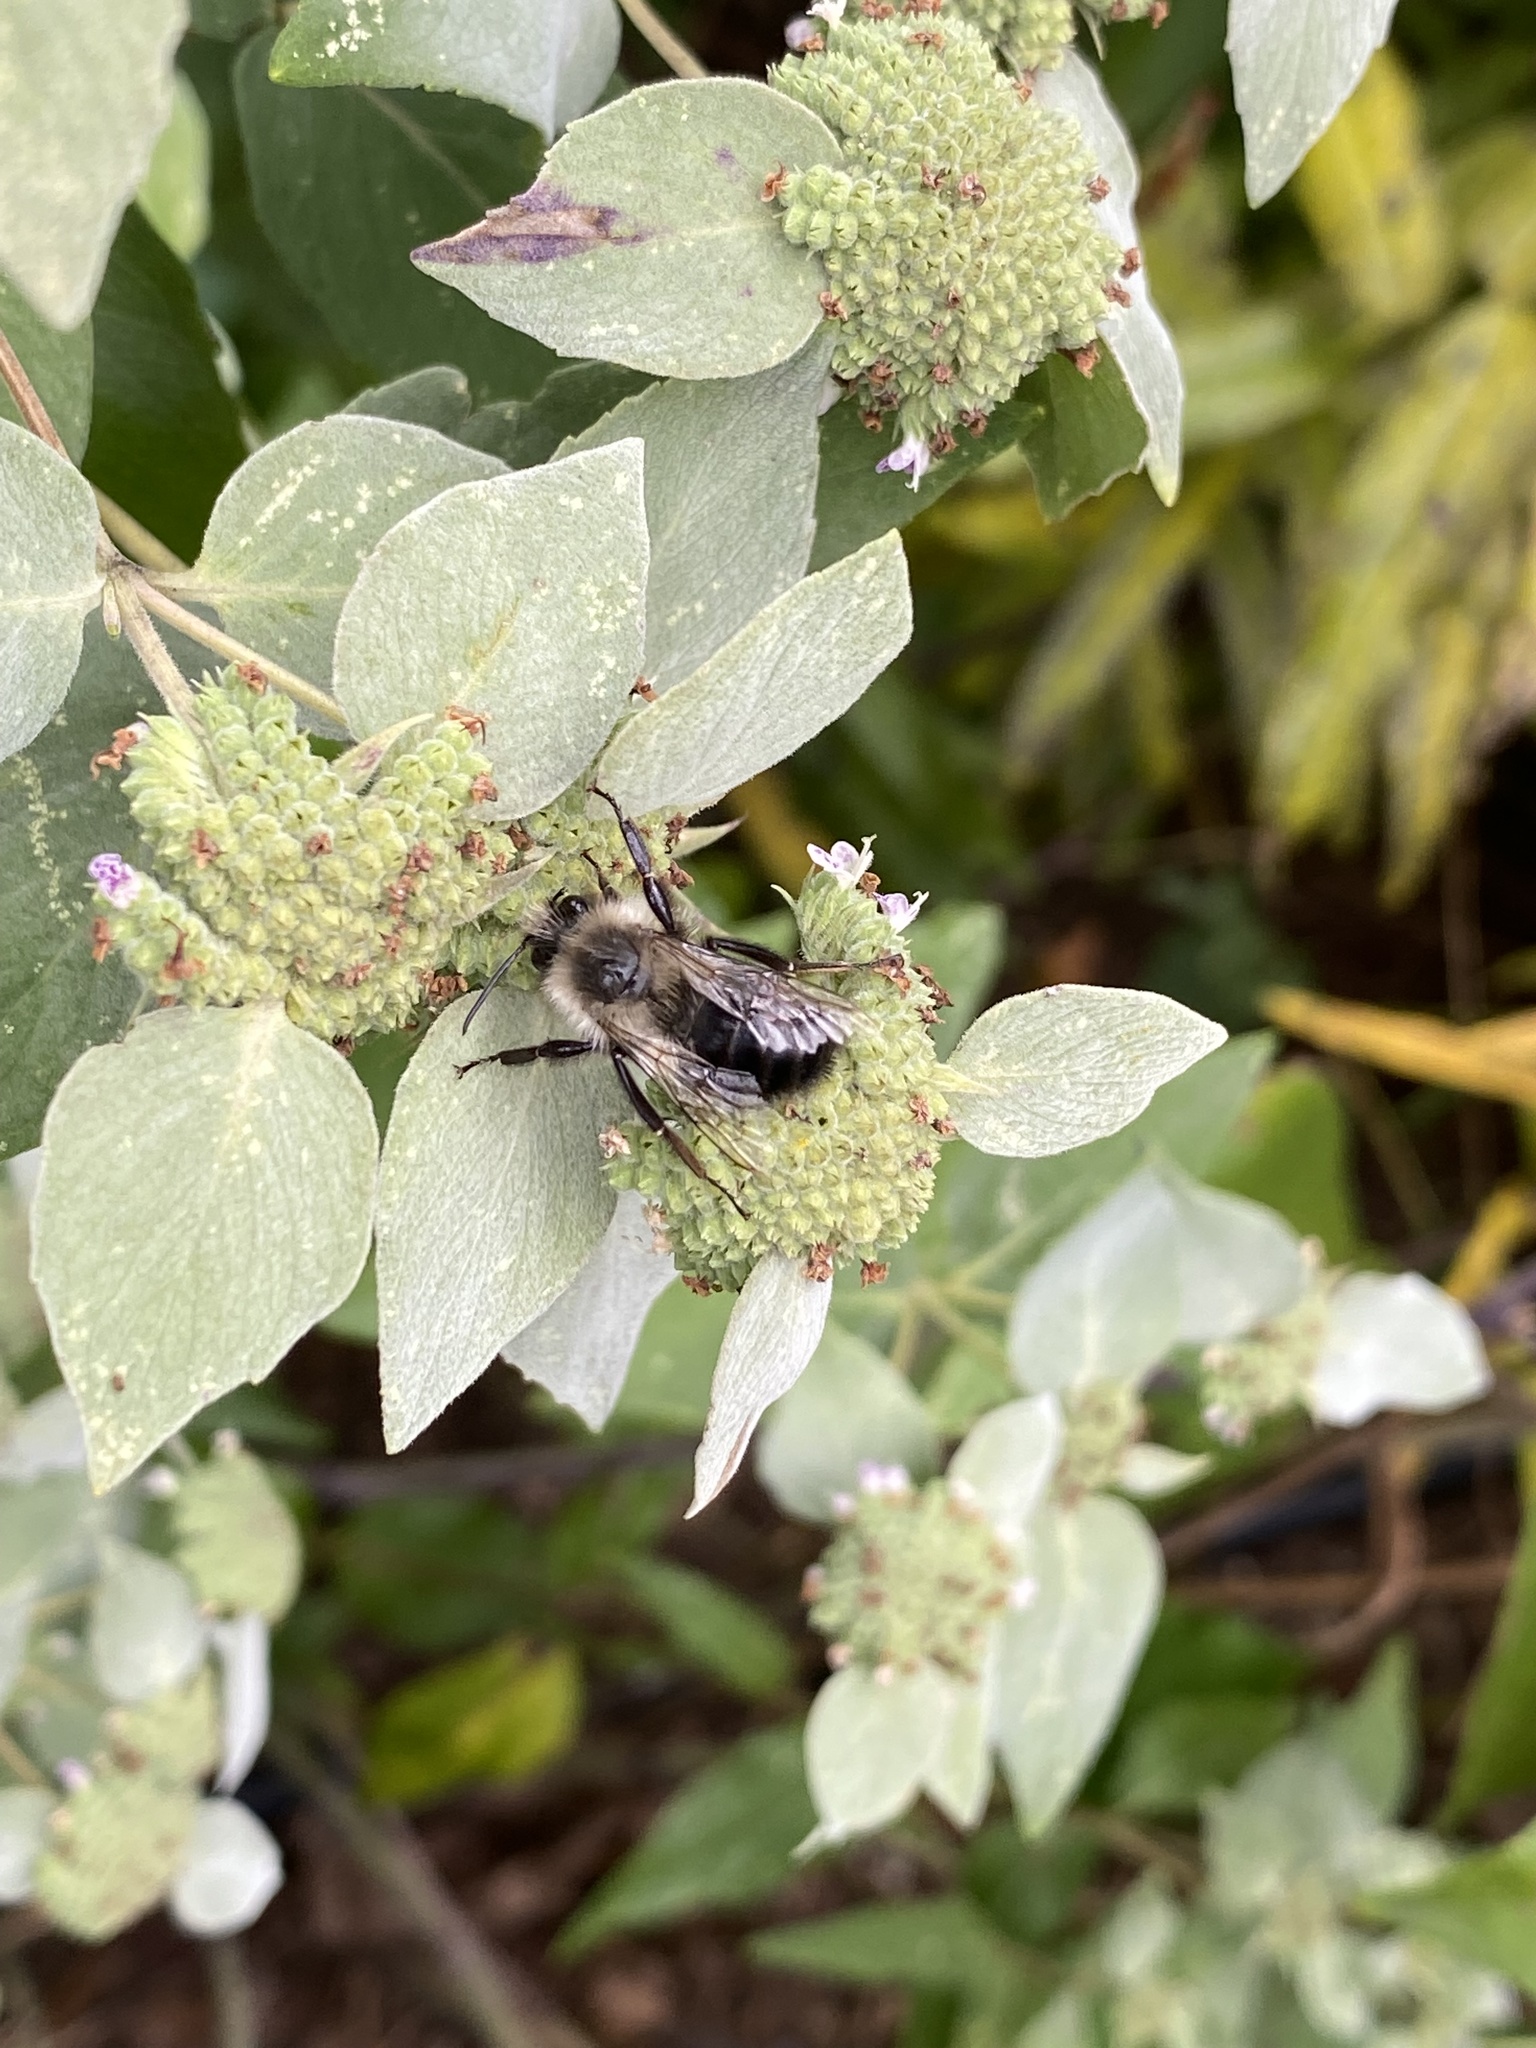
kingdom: Animalia
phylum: Arthropoda
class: Insecta
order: Hymenoptera
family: Apidae
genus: Bombus
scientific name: Bombus impatiens
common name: Common eastern bumble bee
